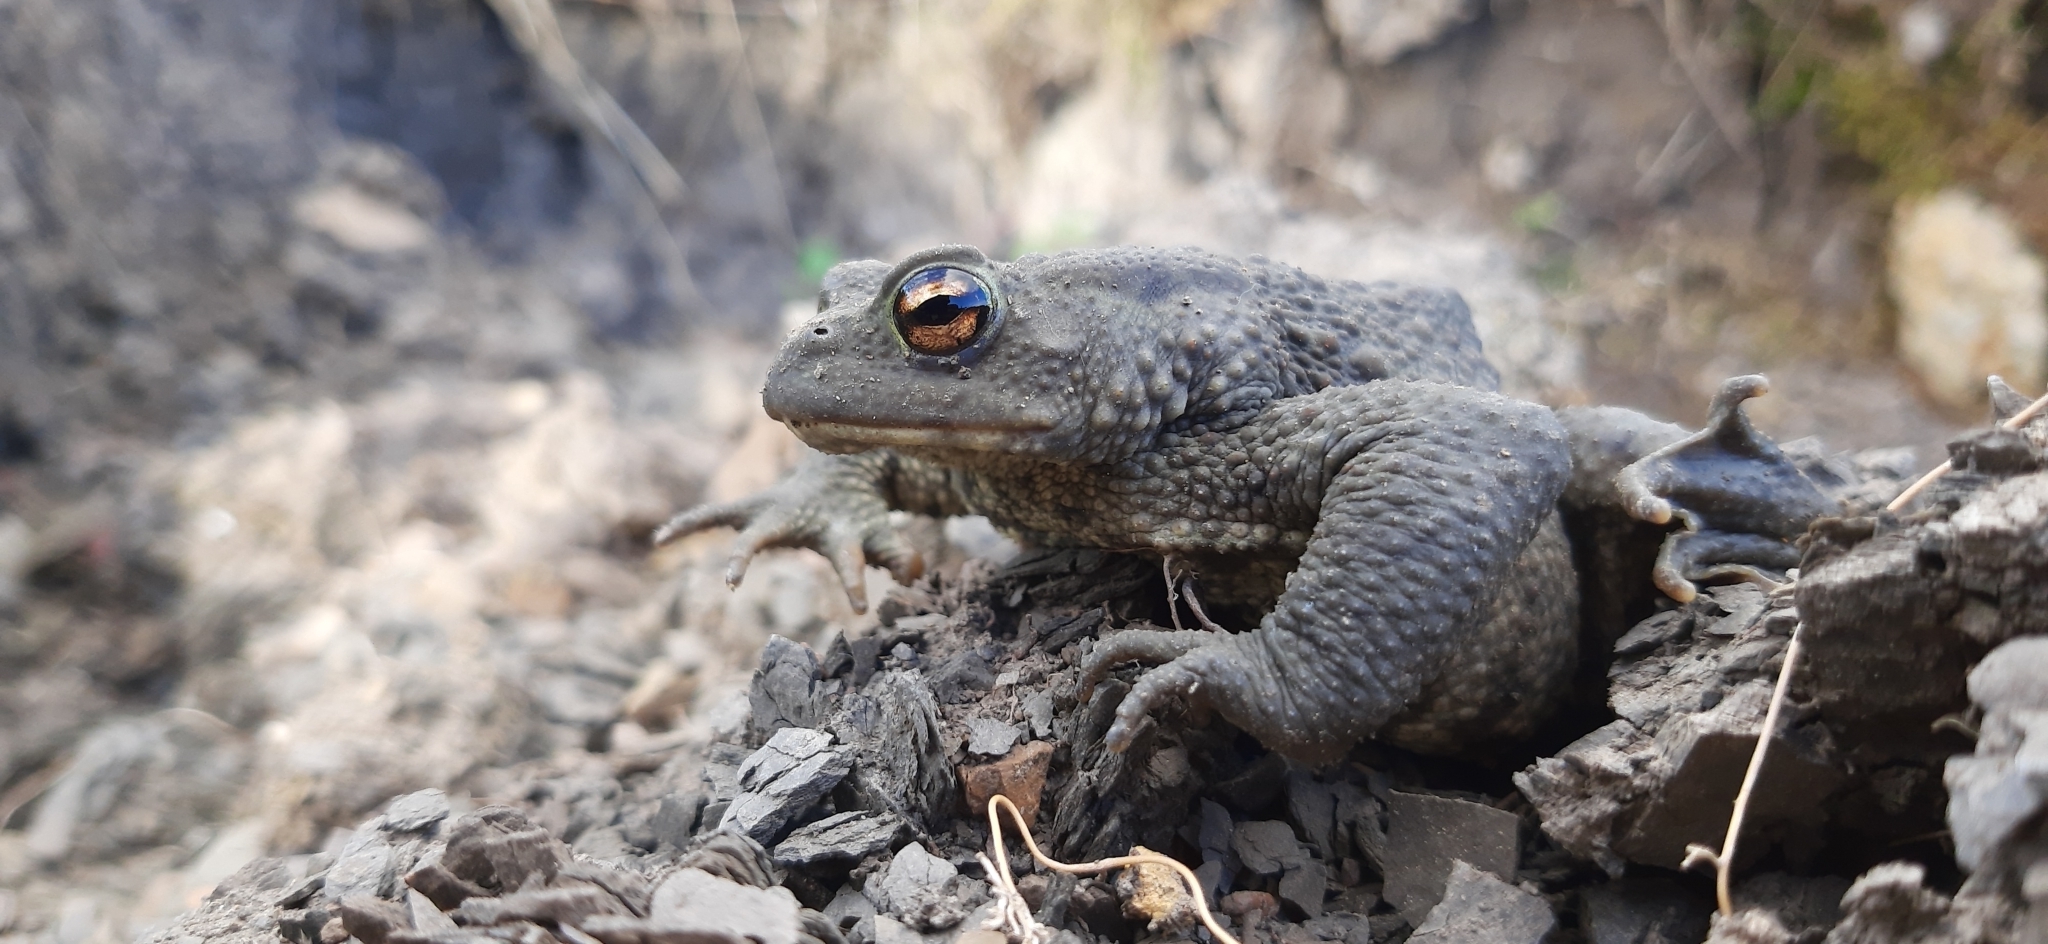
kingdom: Animalia
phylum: Chordata
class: Amphibia
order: Anura
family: Bufonidae
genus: Bufo
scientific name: Bufo bufo
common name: Common toad
